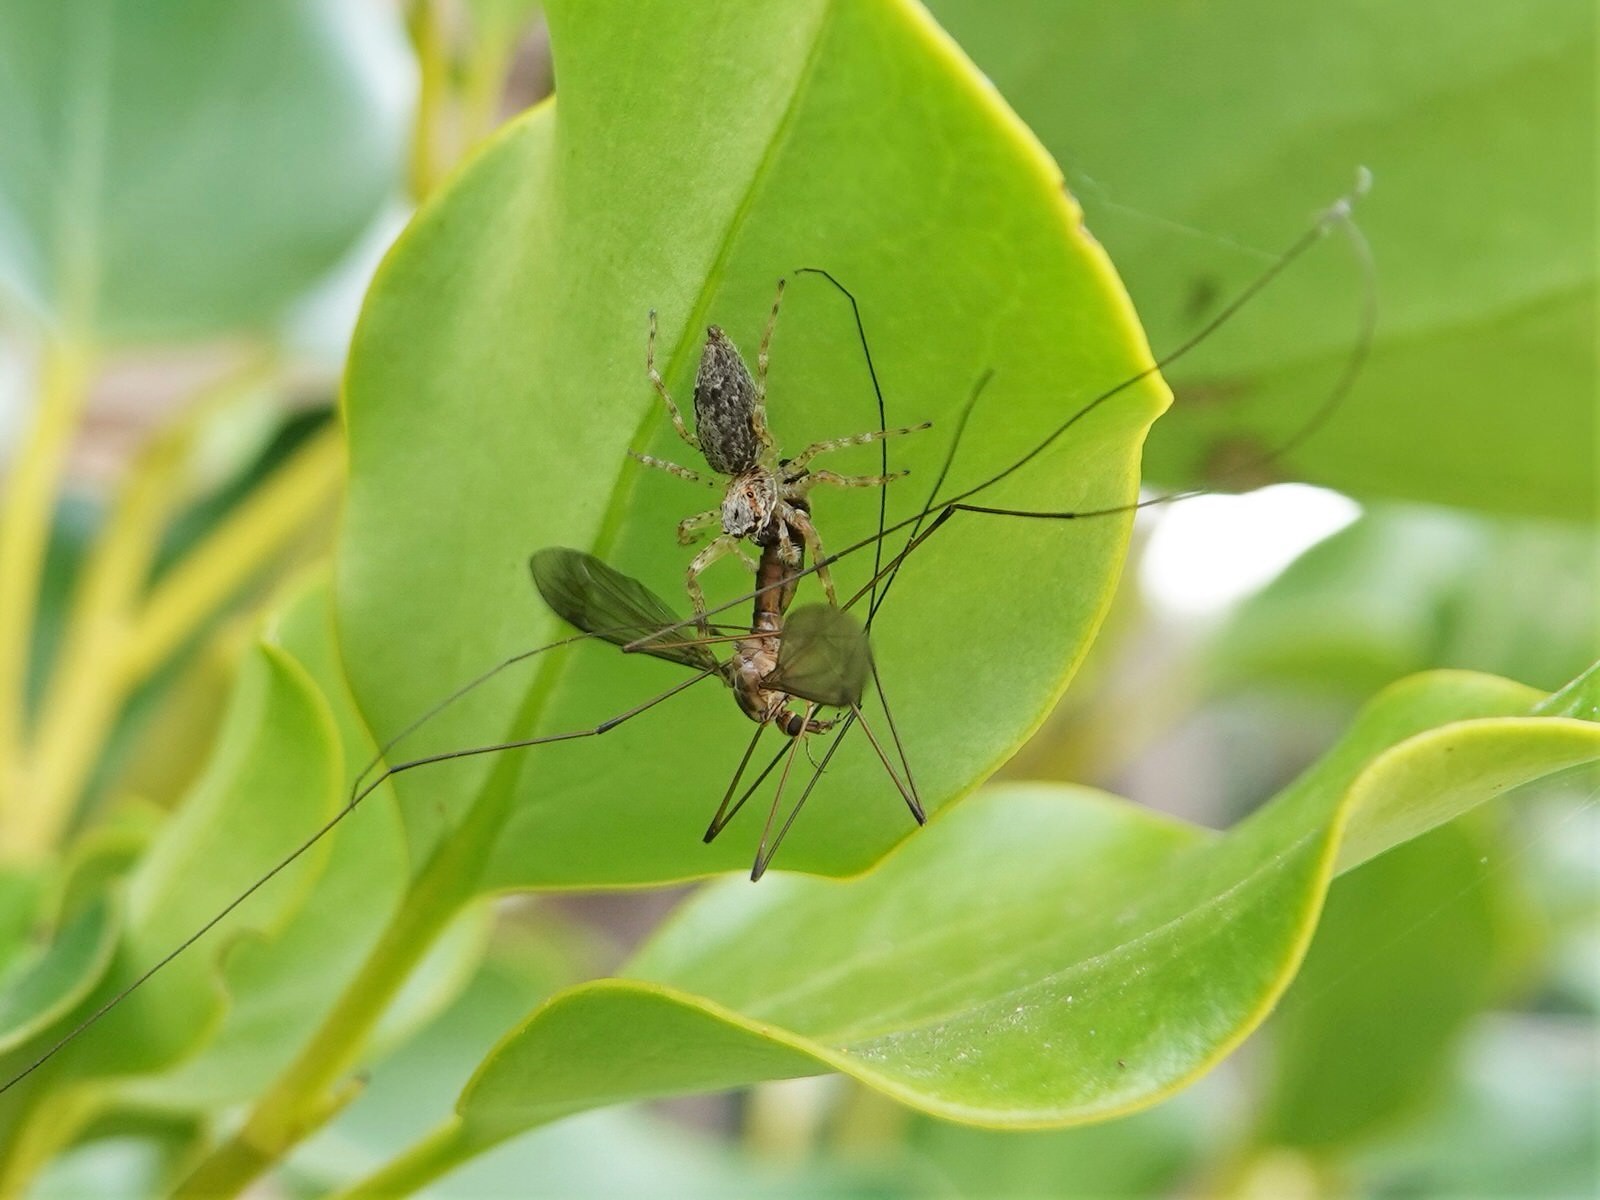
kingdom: Animalia
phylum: Arthropoda
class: Arachnida
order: Araneae
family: Salticidae
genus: Helpis
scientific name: Helpis minitabunda
